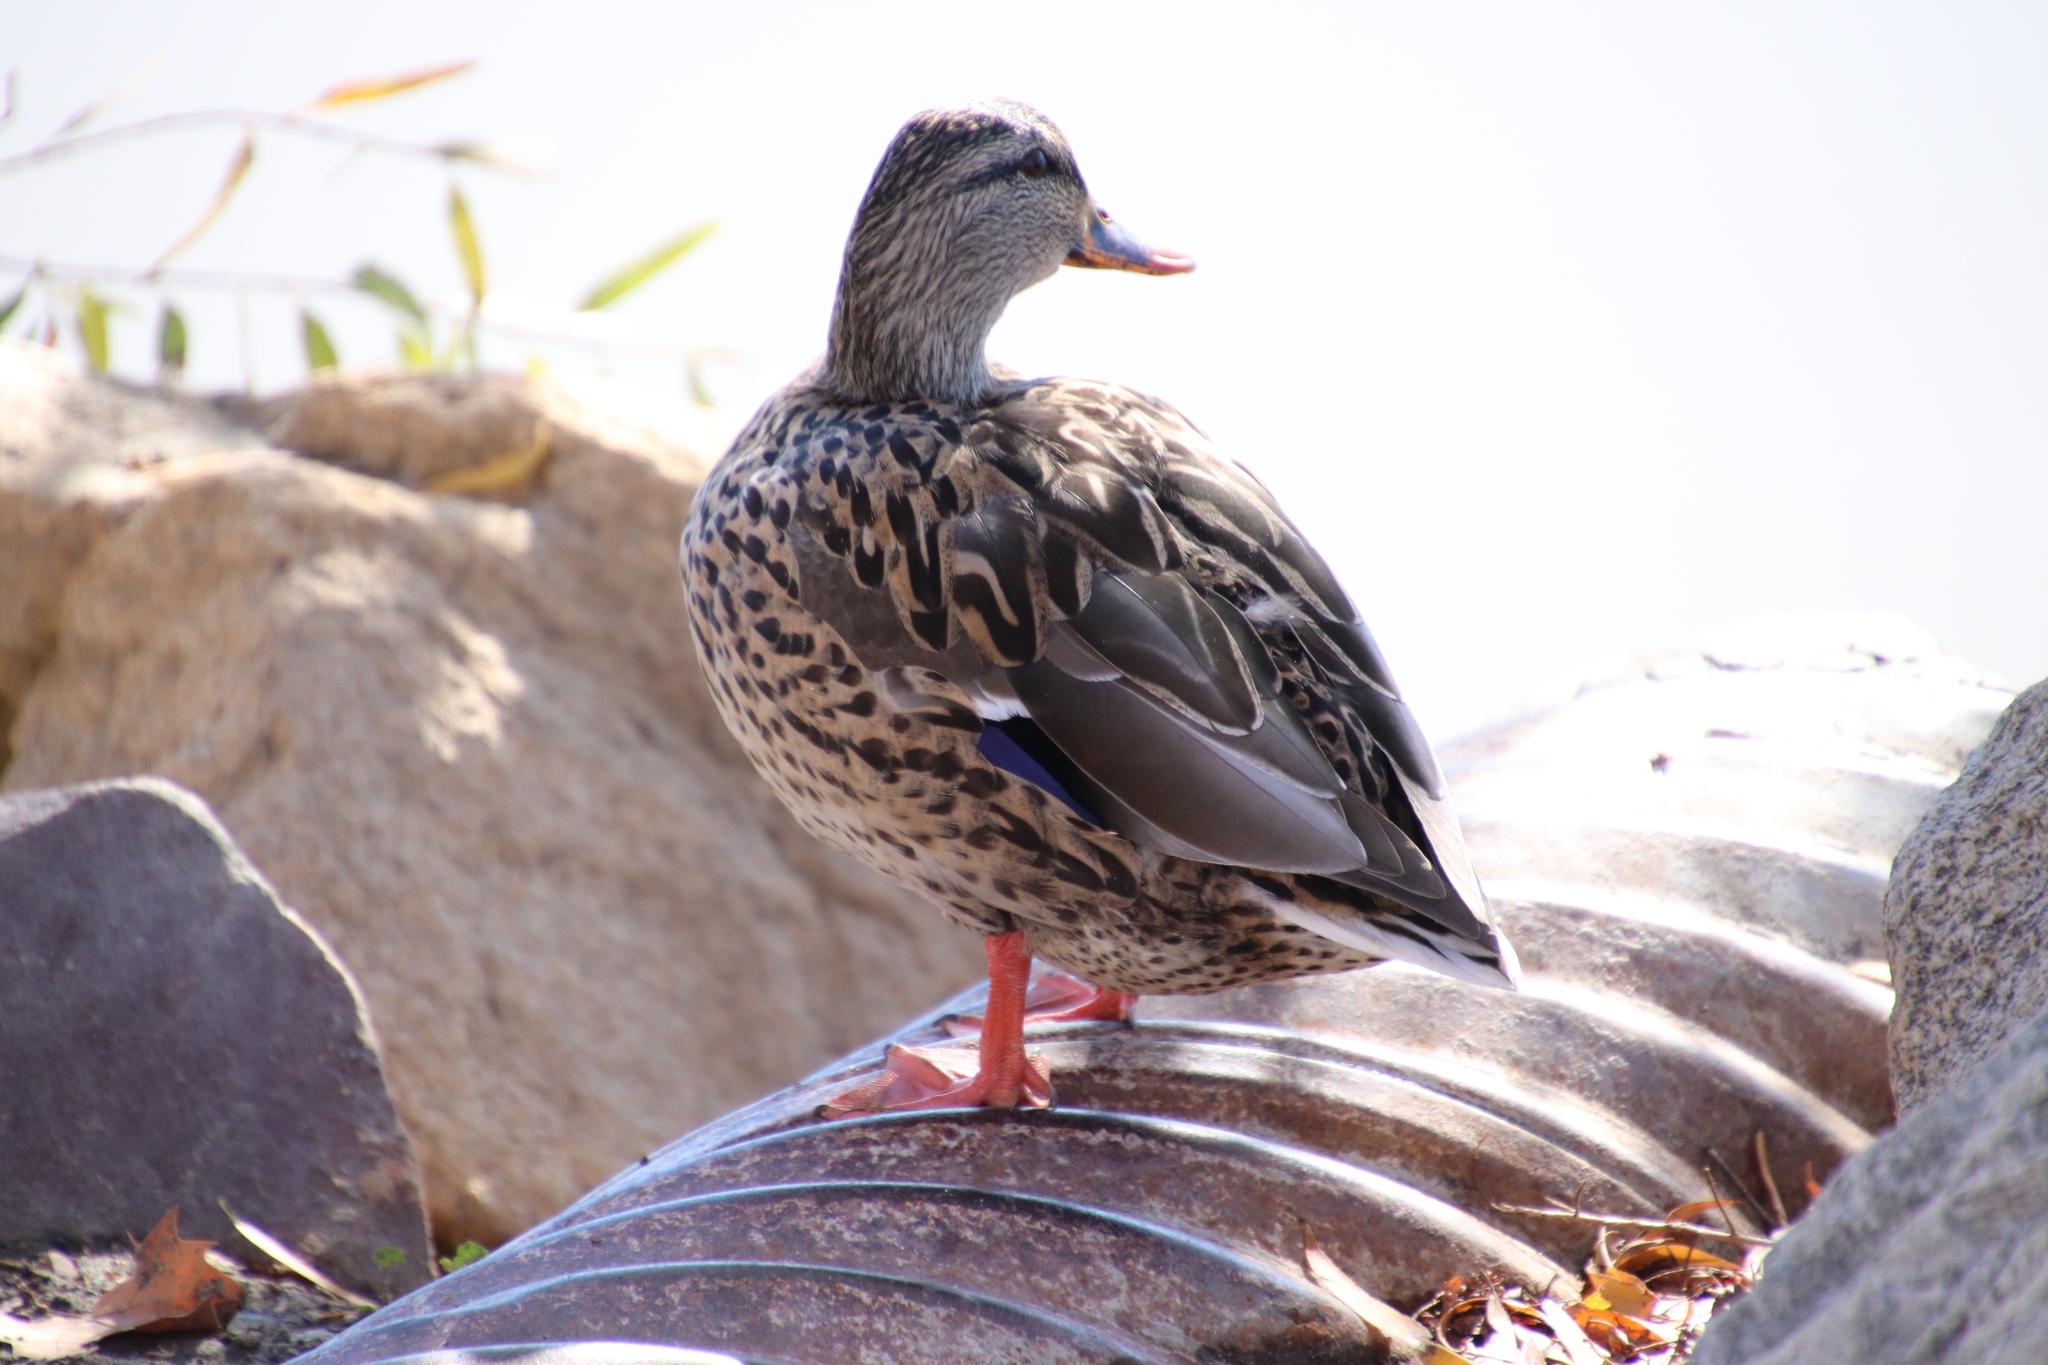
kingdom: Animalia
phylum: Chordata
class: Aves
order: Anseriformes
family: Anatidae
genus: Anas
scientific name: Anas platyrhynchos
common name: Mallard
